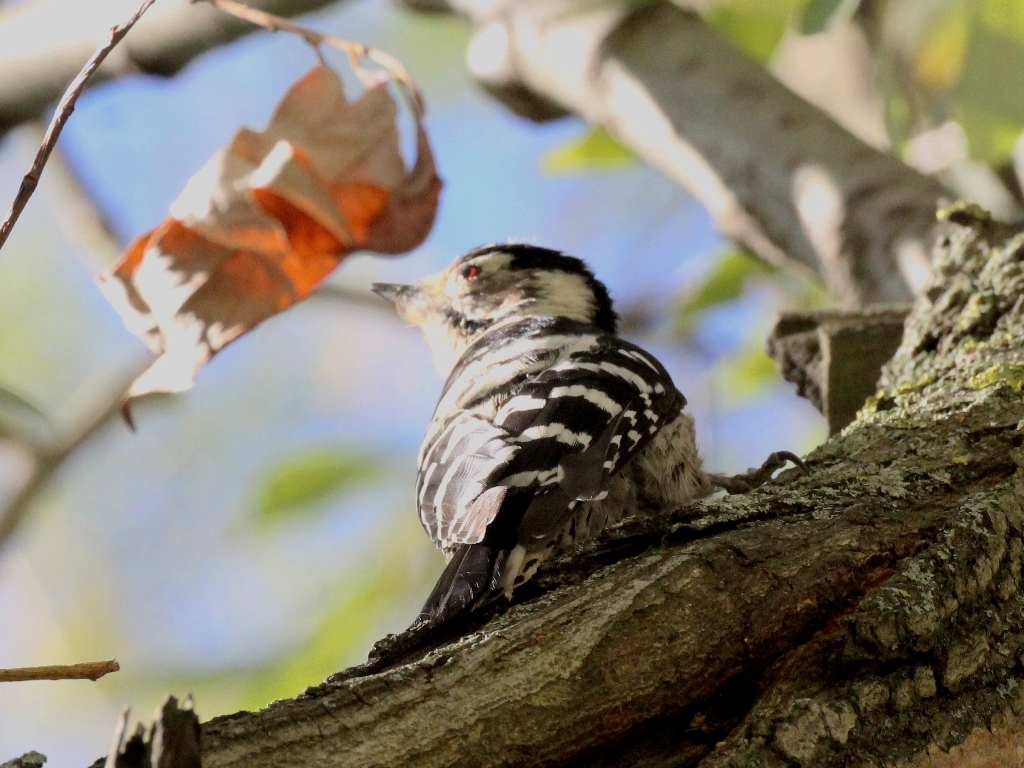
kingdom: Animalia
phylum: Chordata
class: Aves
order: Piciformes
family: Picidae
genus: Dryobates
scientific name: Dryobates minor
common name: Lesser spotted woodpecker
